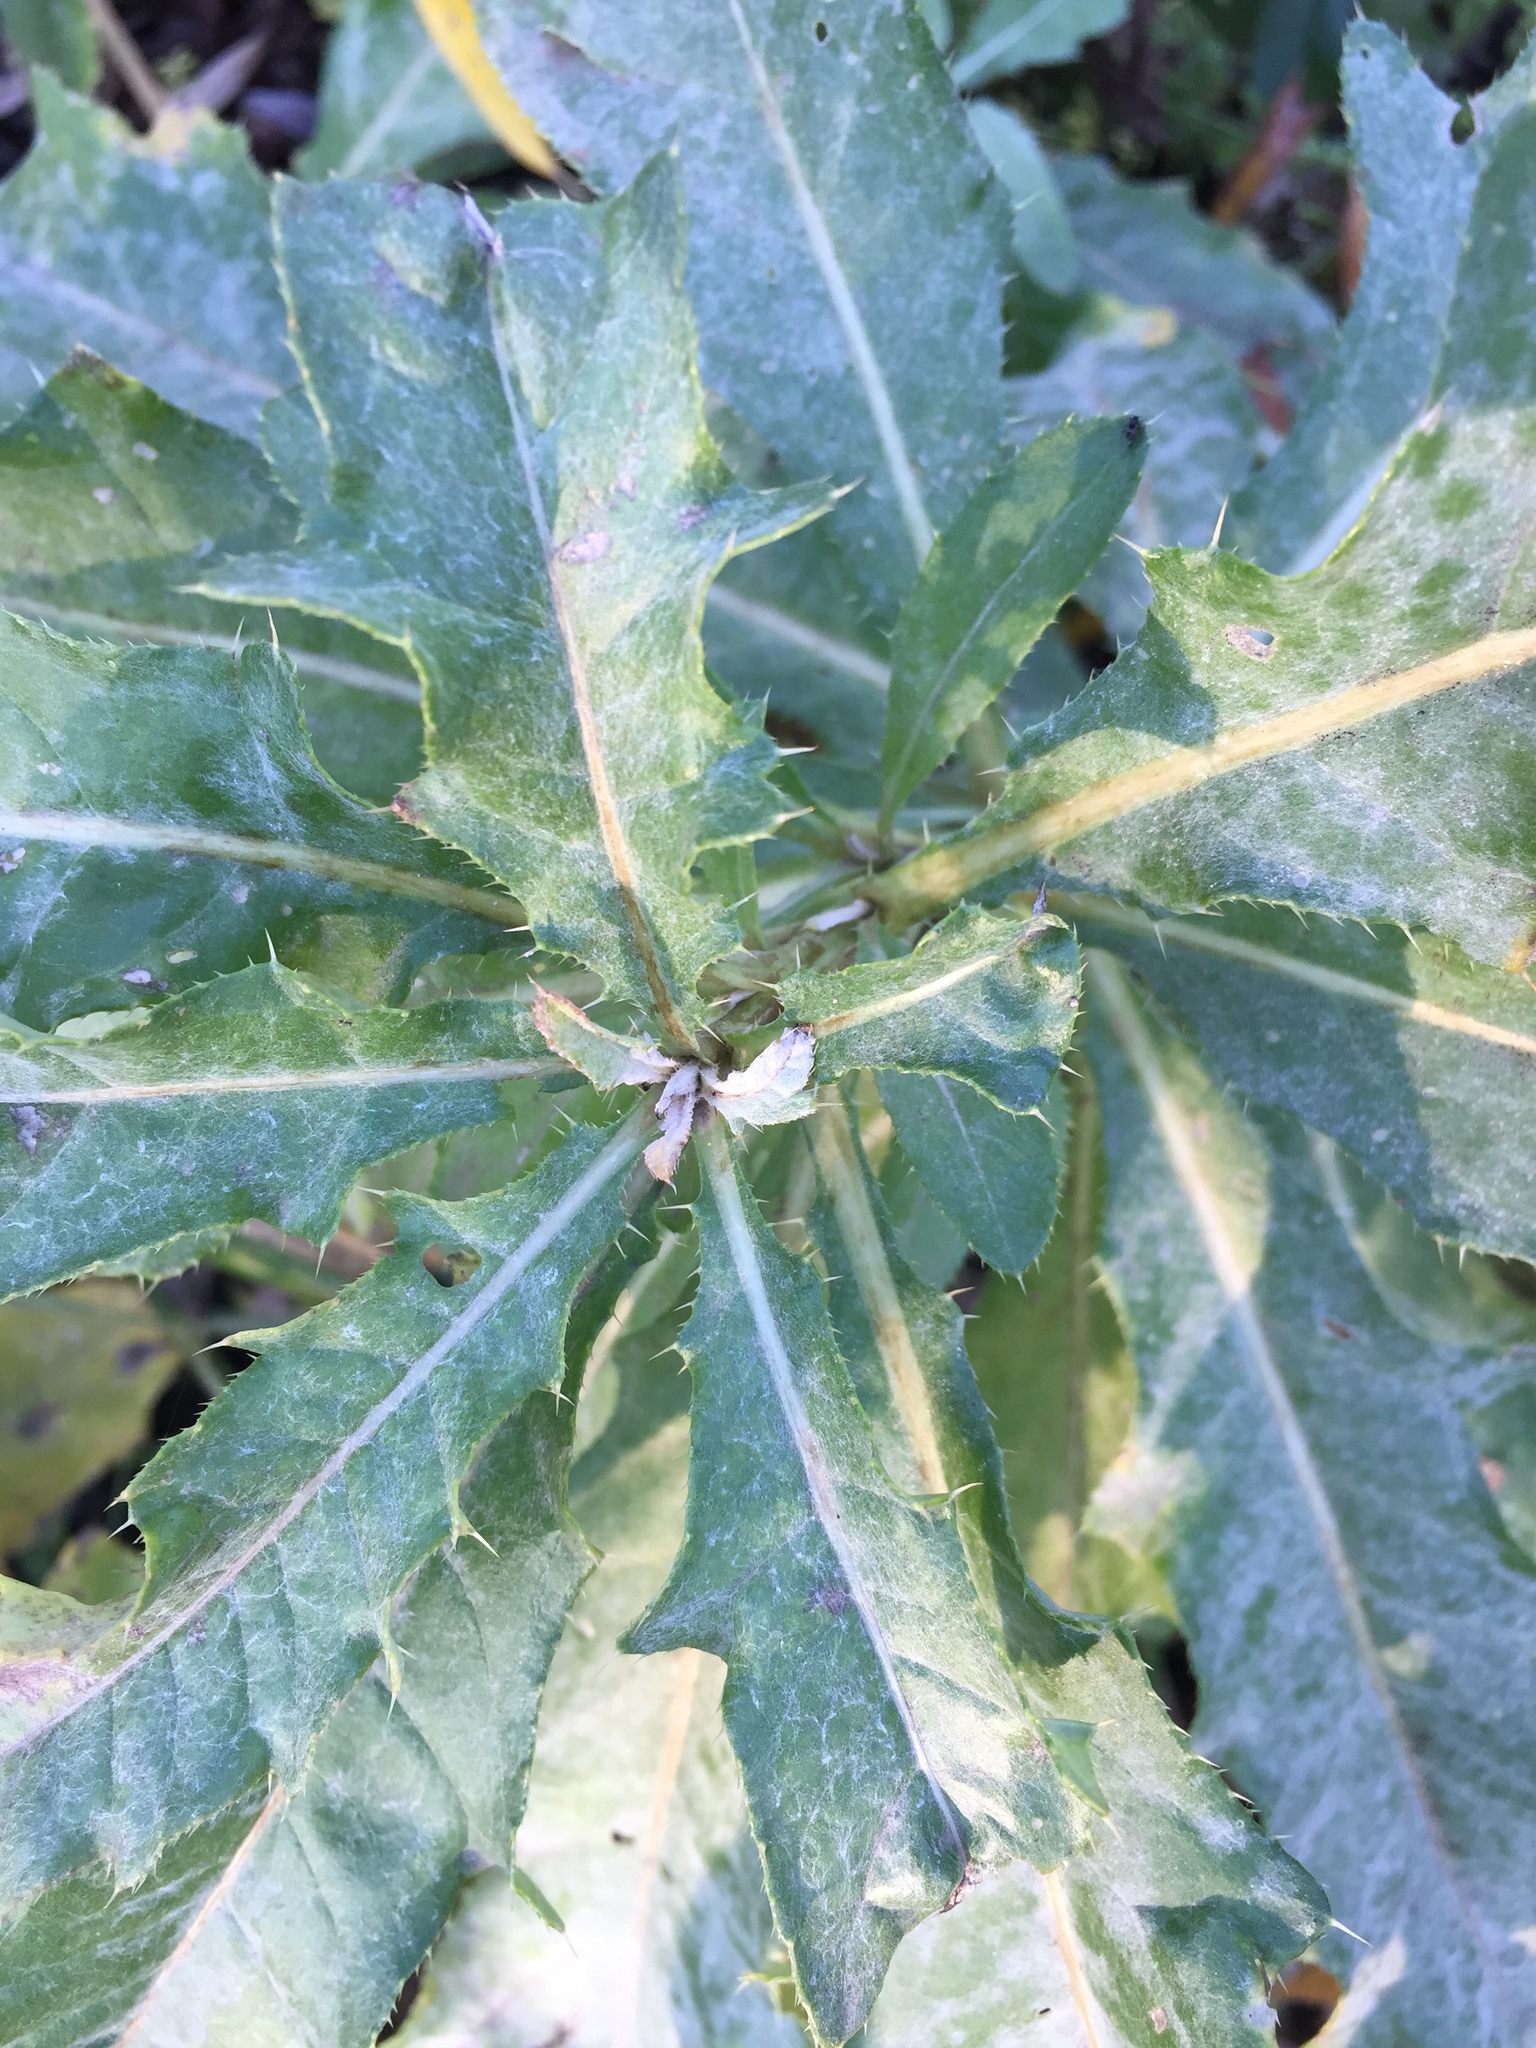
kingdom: Plantae
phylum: Tracheophyta
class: Magnoliopsida
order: Asterales
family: Asteraceae
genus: Cirsium
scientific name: Cirsium arvense
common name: Creeping thistle
